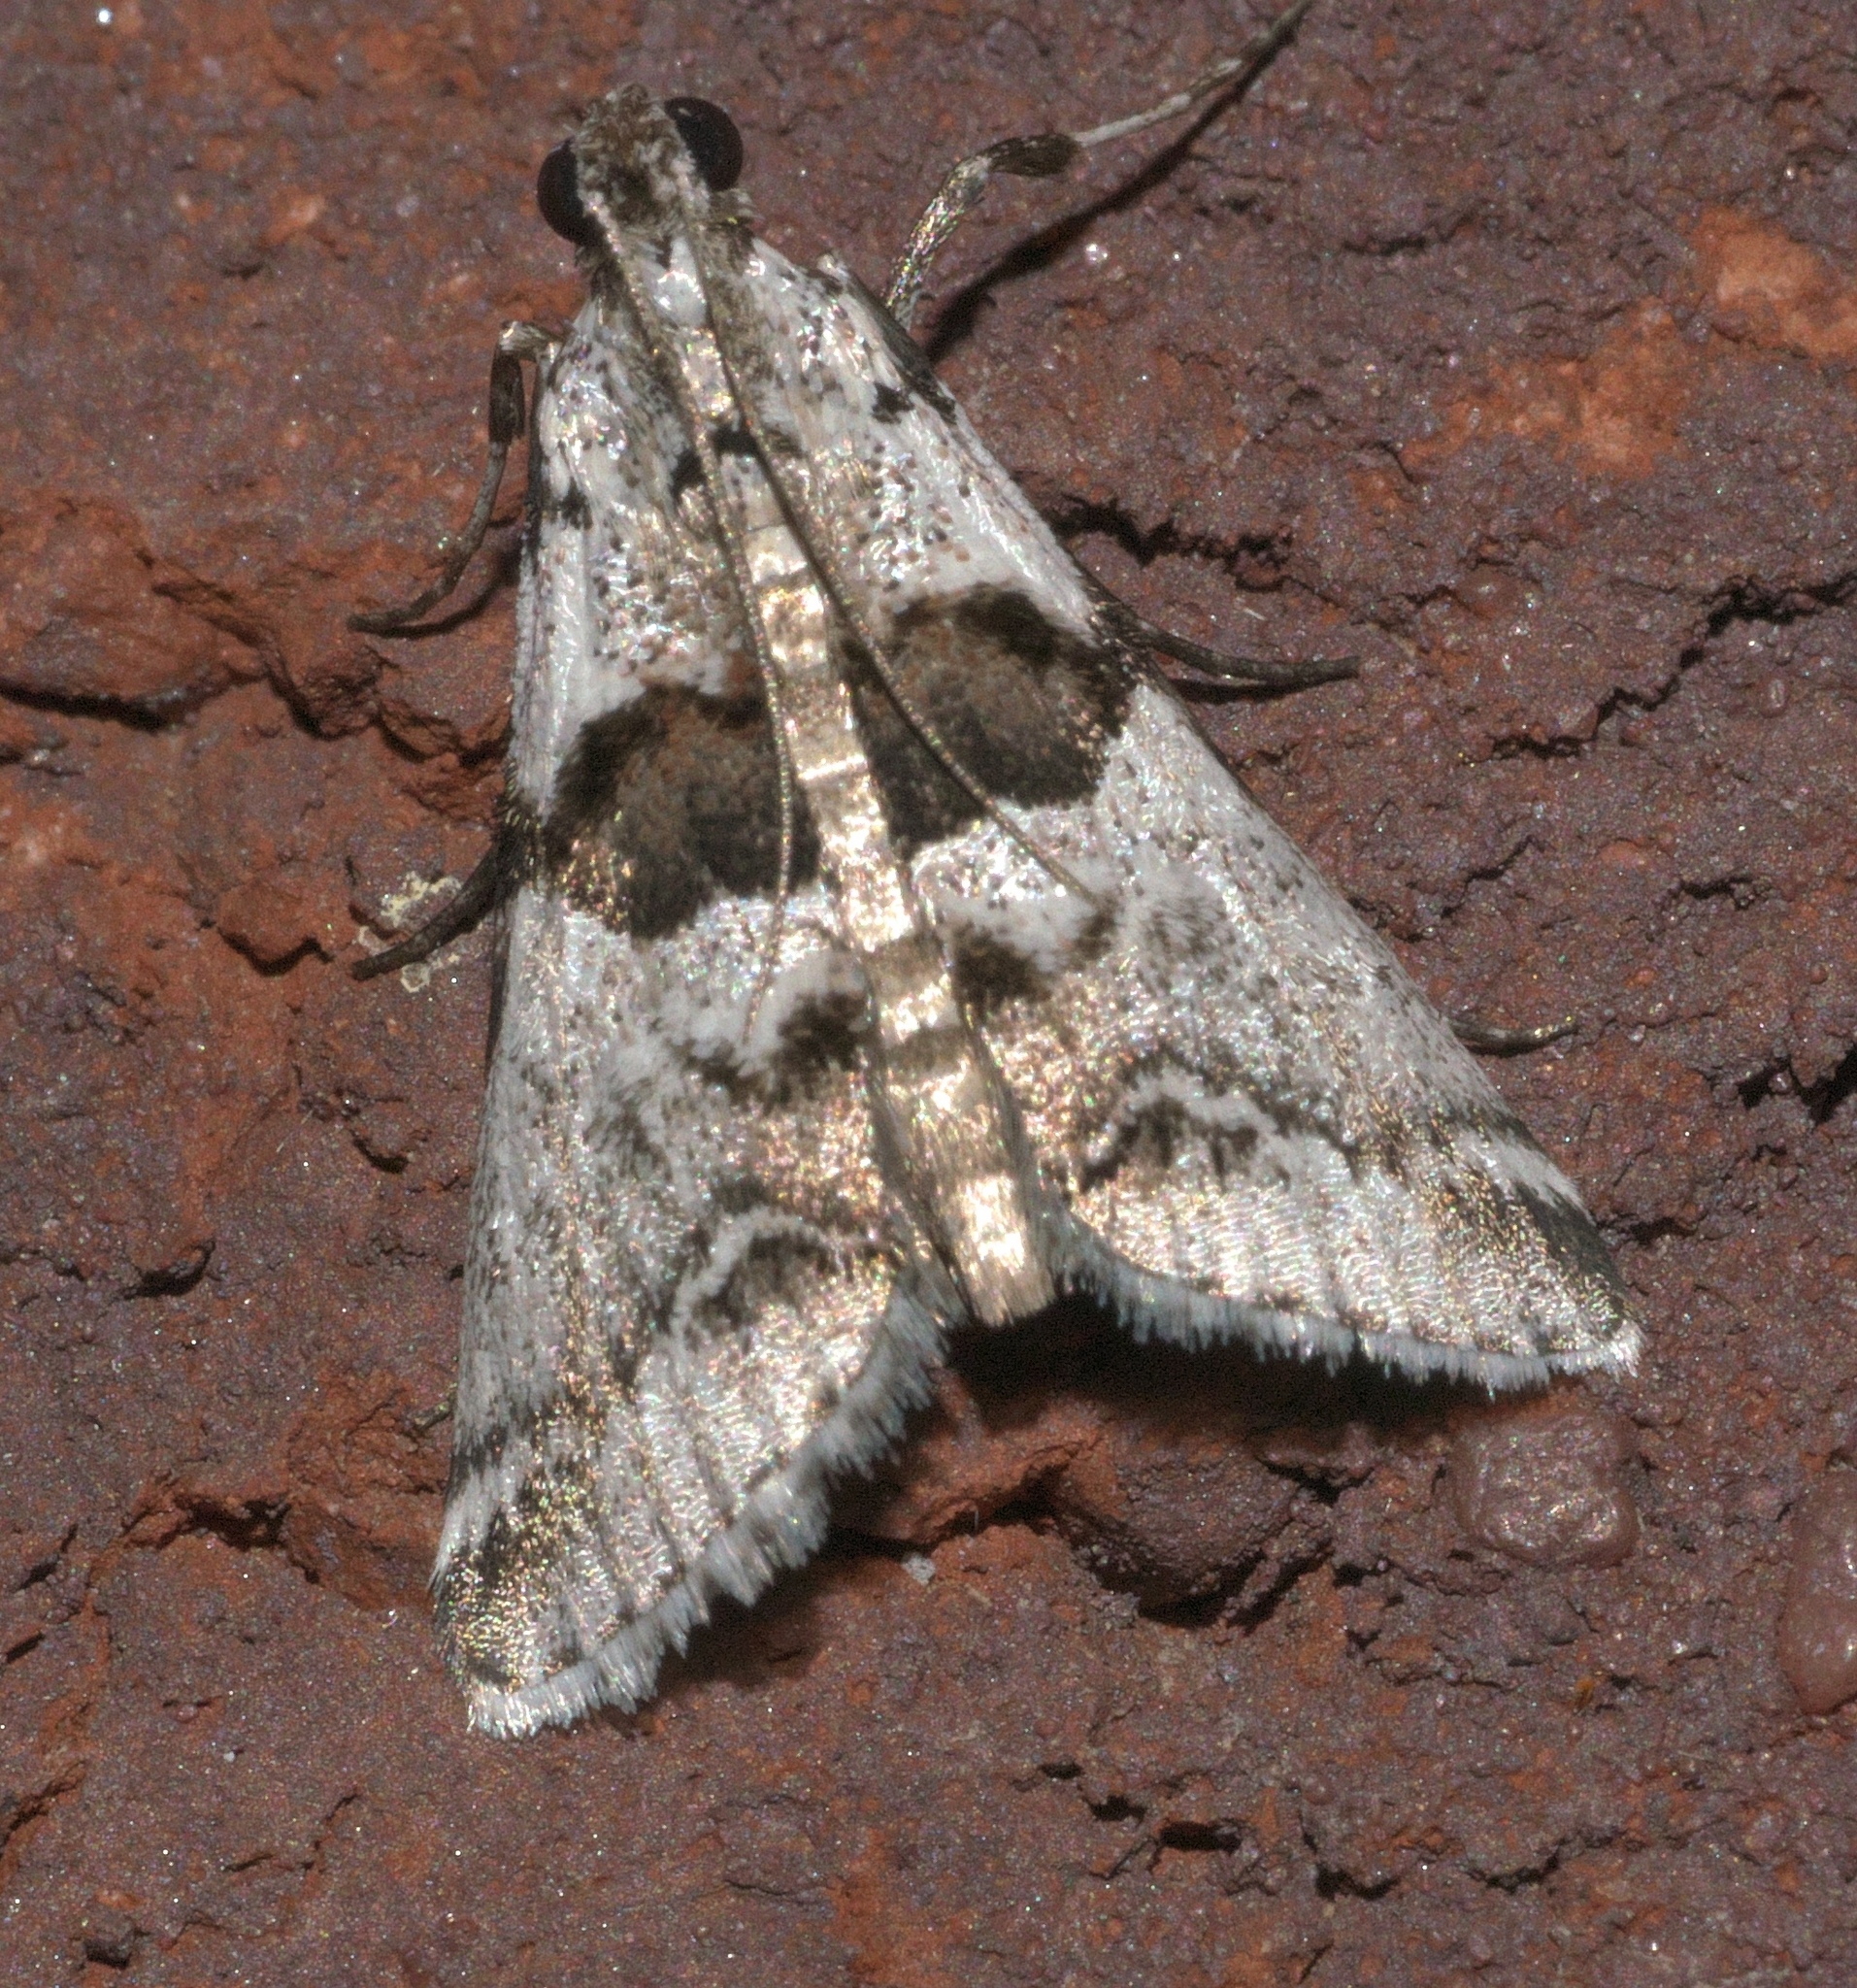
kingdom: Animalia
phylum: Arthropoda
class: Insecta
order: Lepidoptera
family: Pyralidae
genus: Tallula
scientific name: Tallula atrifascialis
